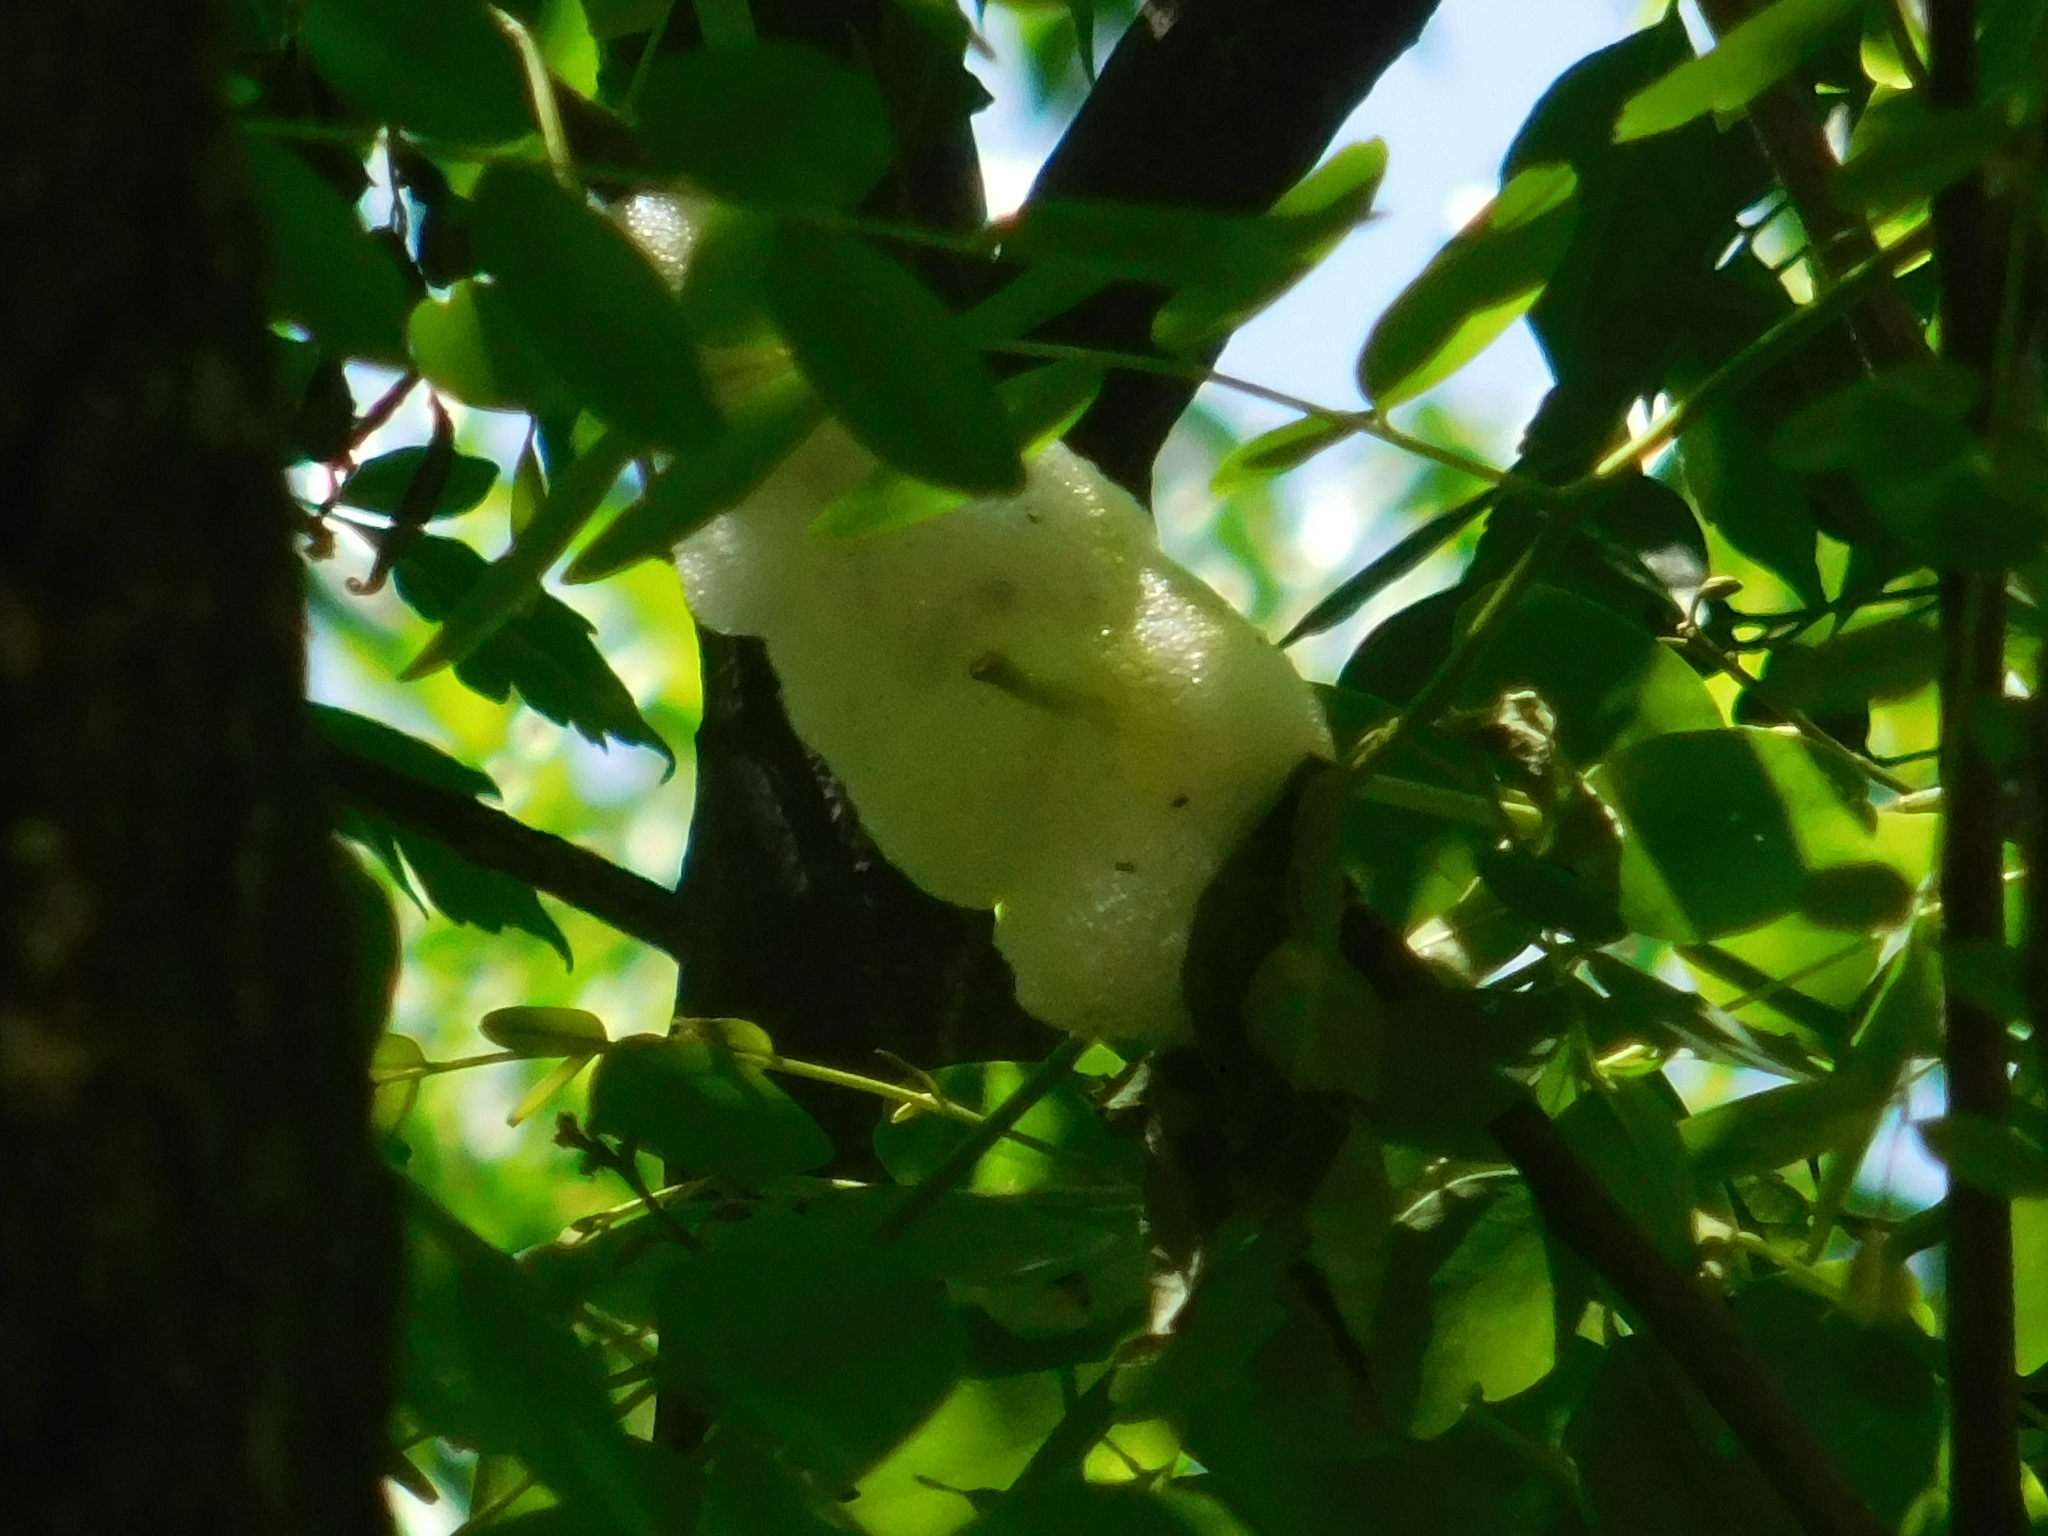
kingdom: Animalia
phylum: Arthropoda
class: Insecta
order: Hemiptera
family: Aphrophoridae
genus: Cephisus
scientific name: Cephisus siccifolius
